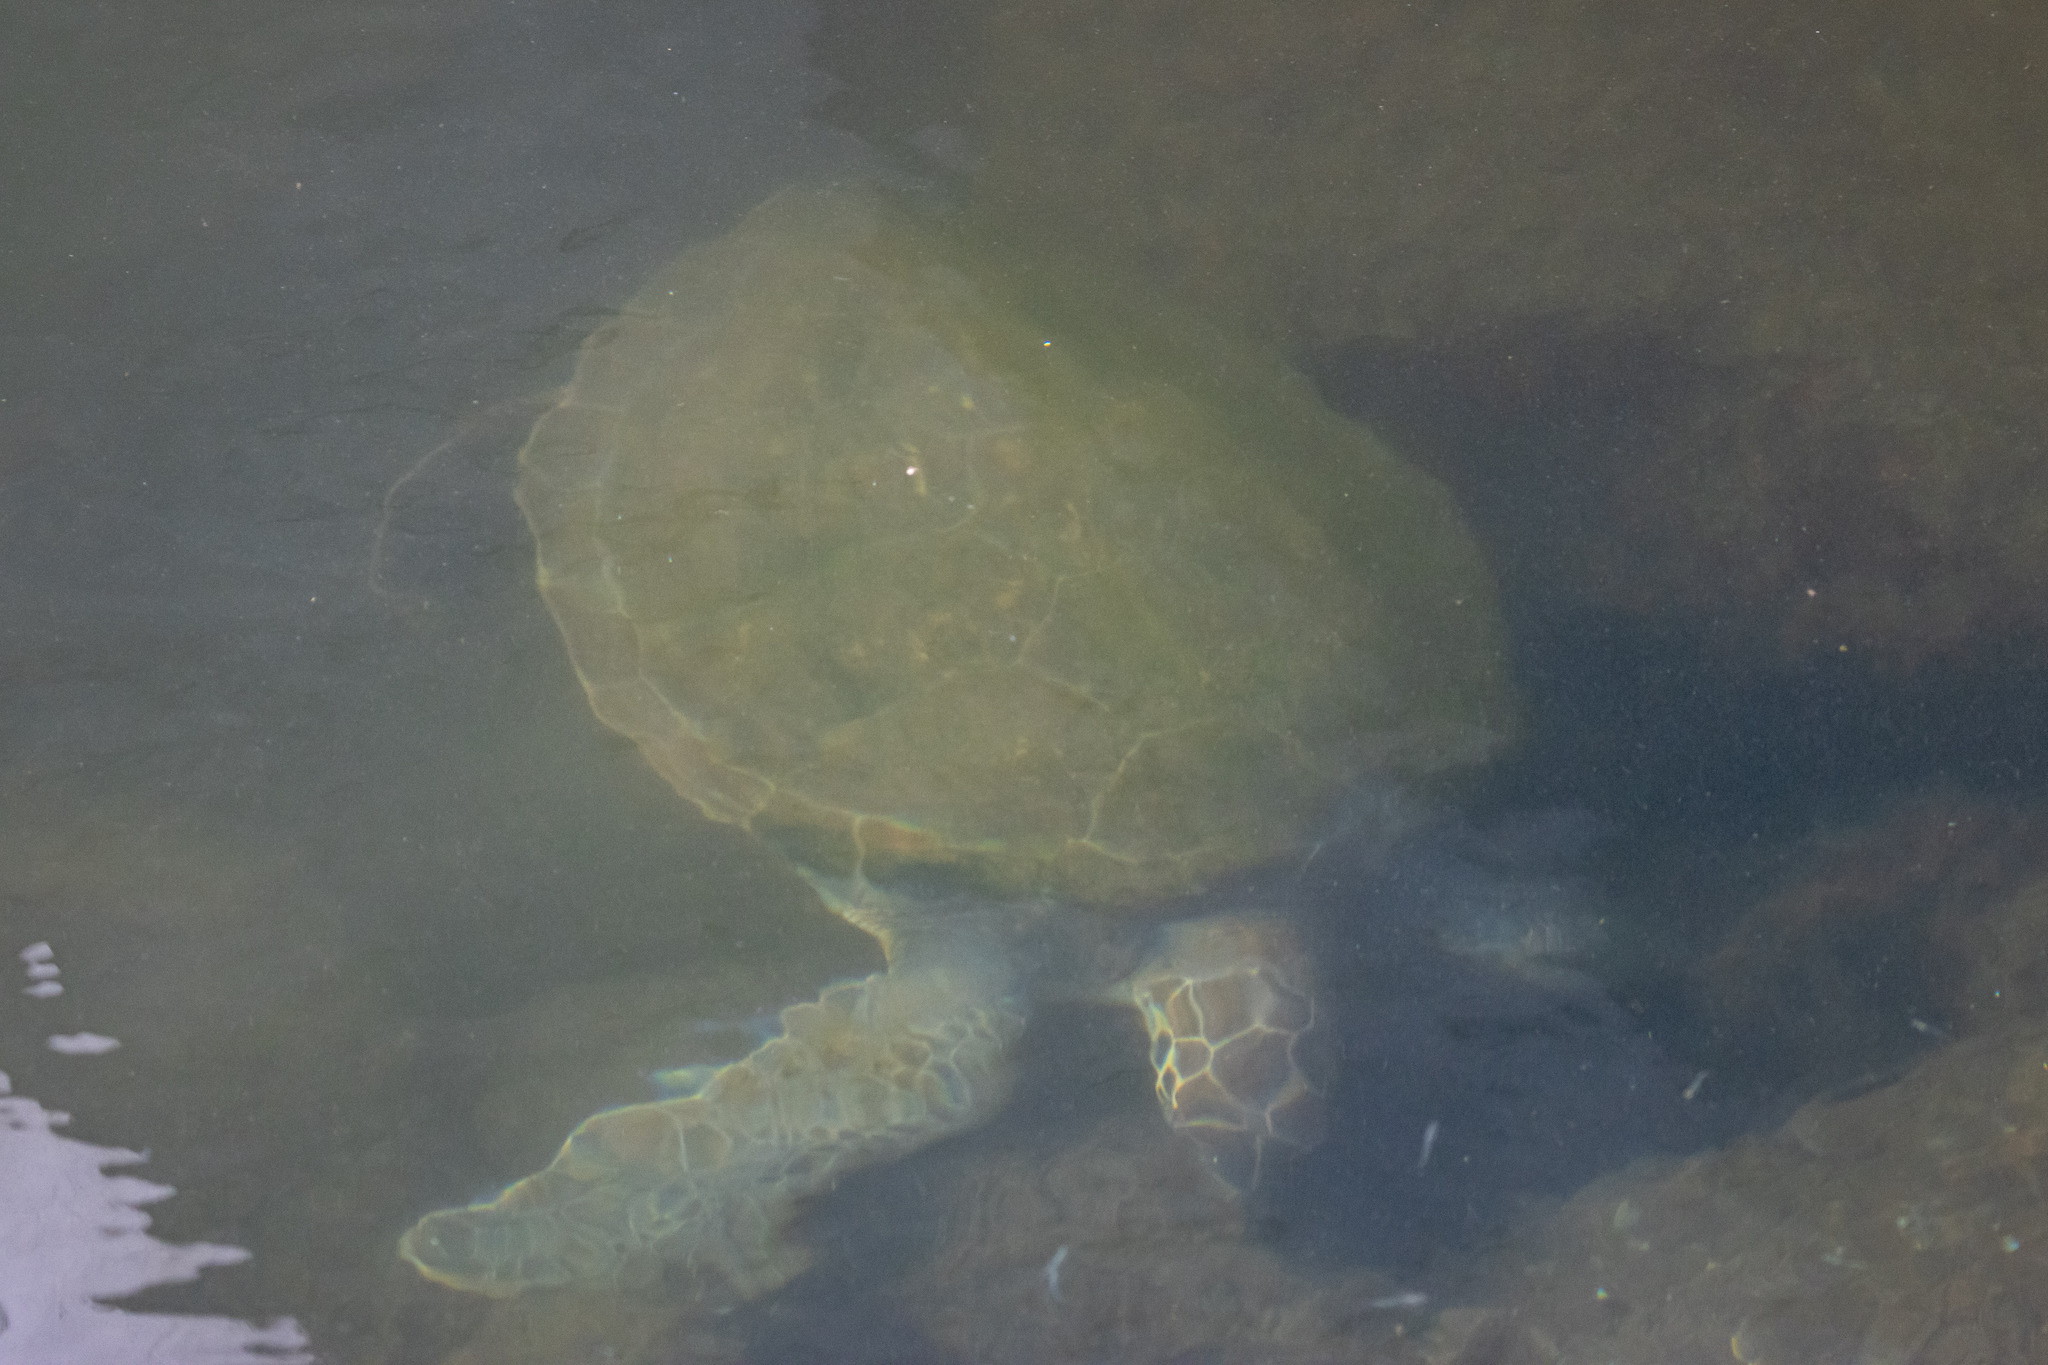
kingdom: Animalia
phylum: Chordata
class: Testudines
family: Cheloniidae
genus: Chelonia
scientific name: Chelonia mydas
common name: Green turtle
